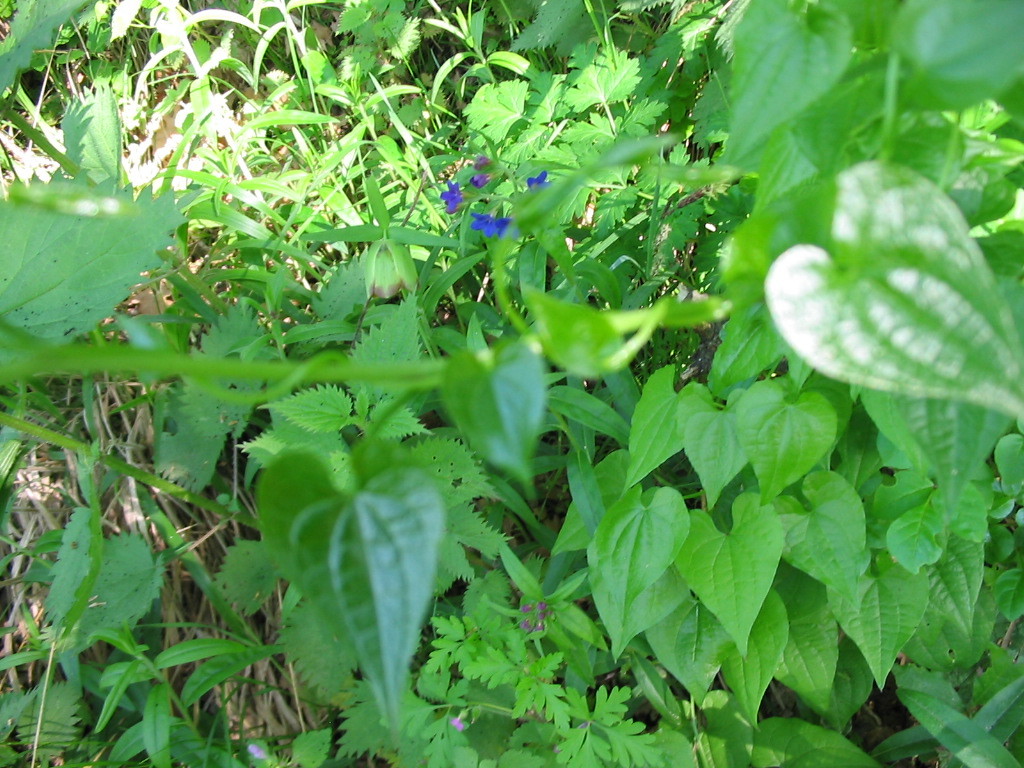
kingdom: Plantae
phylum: Tracheophyta
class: Liliopsida
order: Dioscoreales
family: Dioscoreaceae
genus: Dioscorea
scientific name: Dioscorea communis
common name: Black-bindweed
